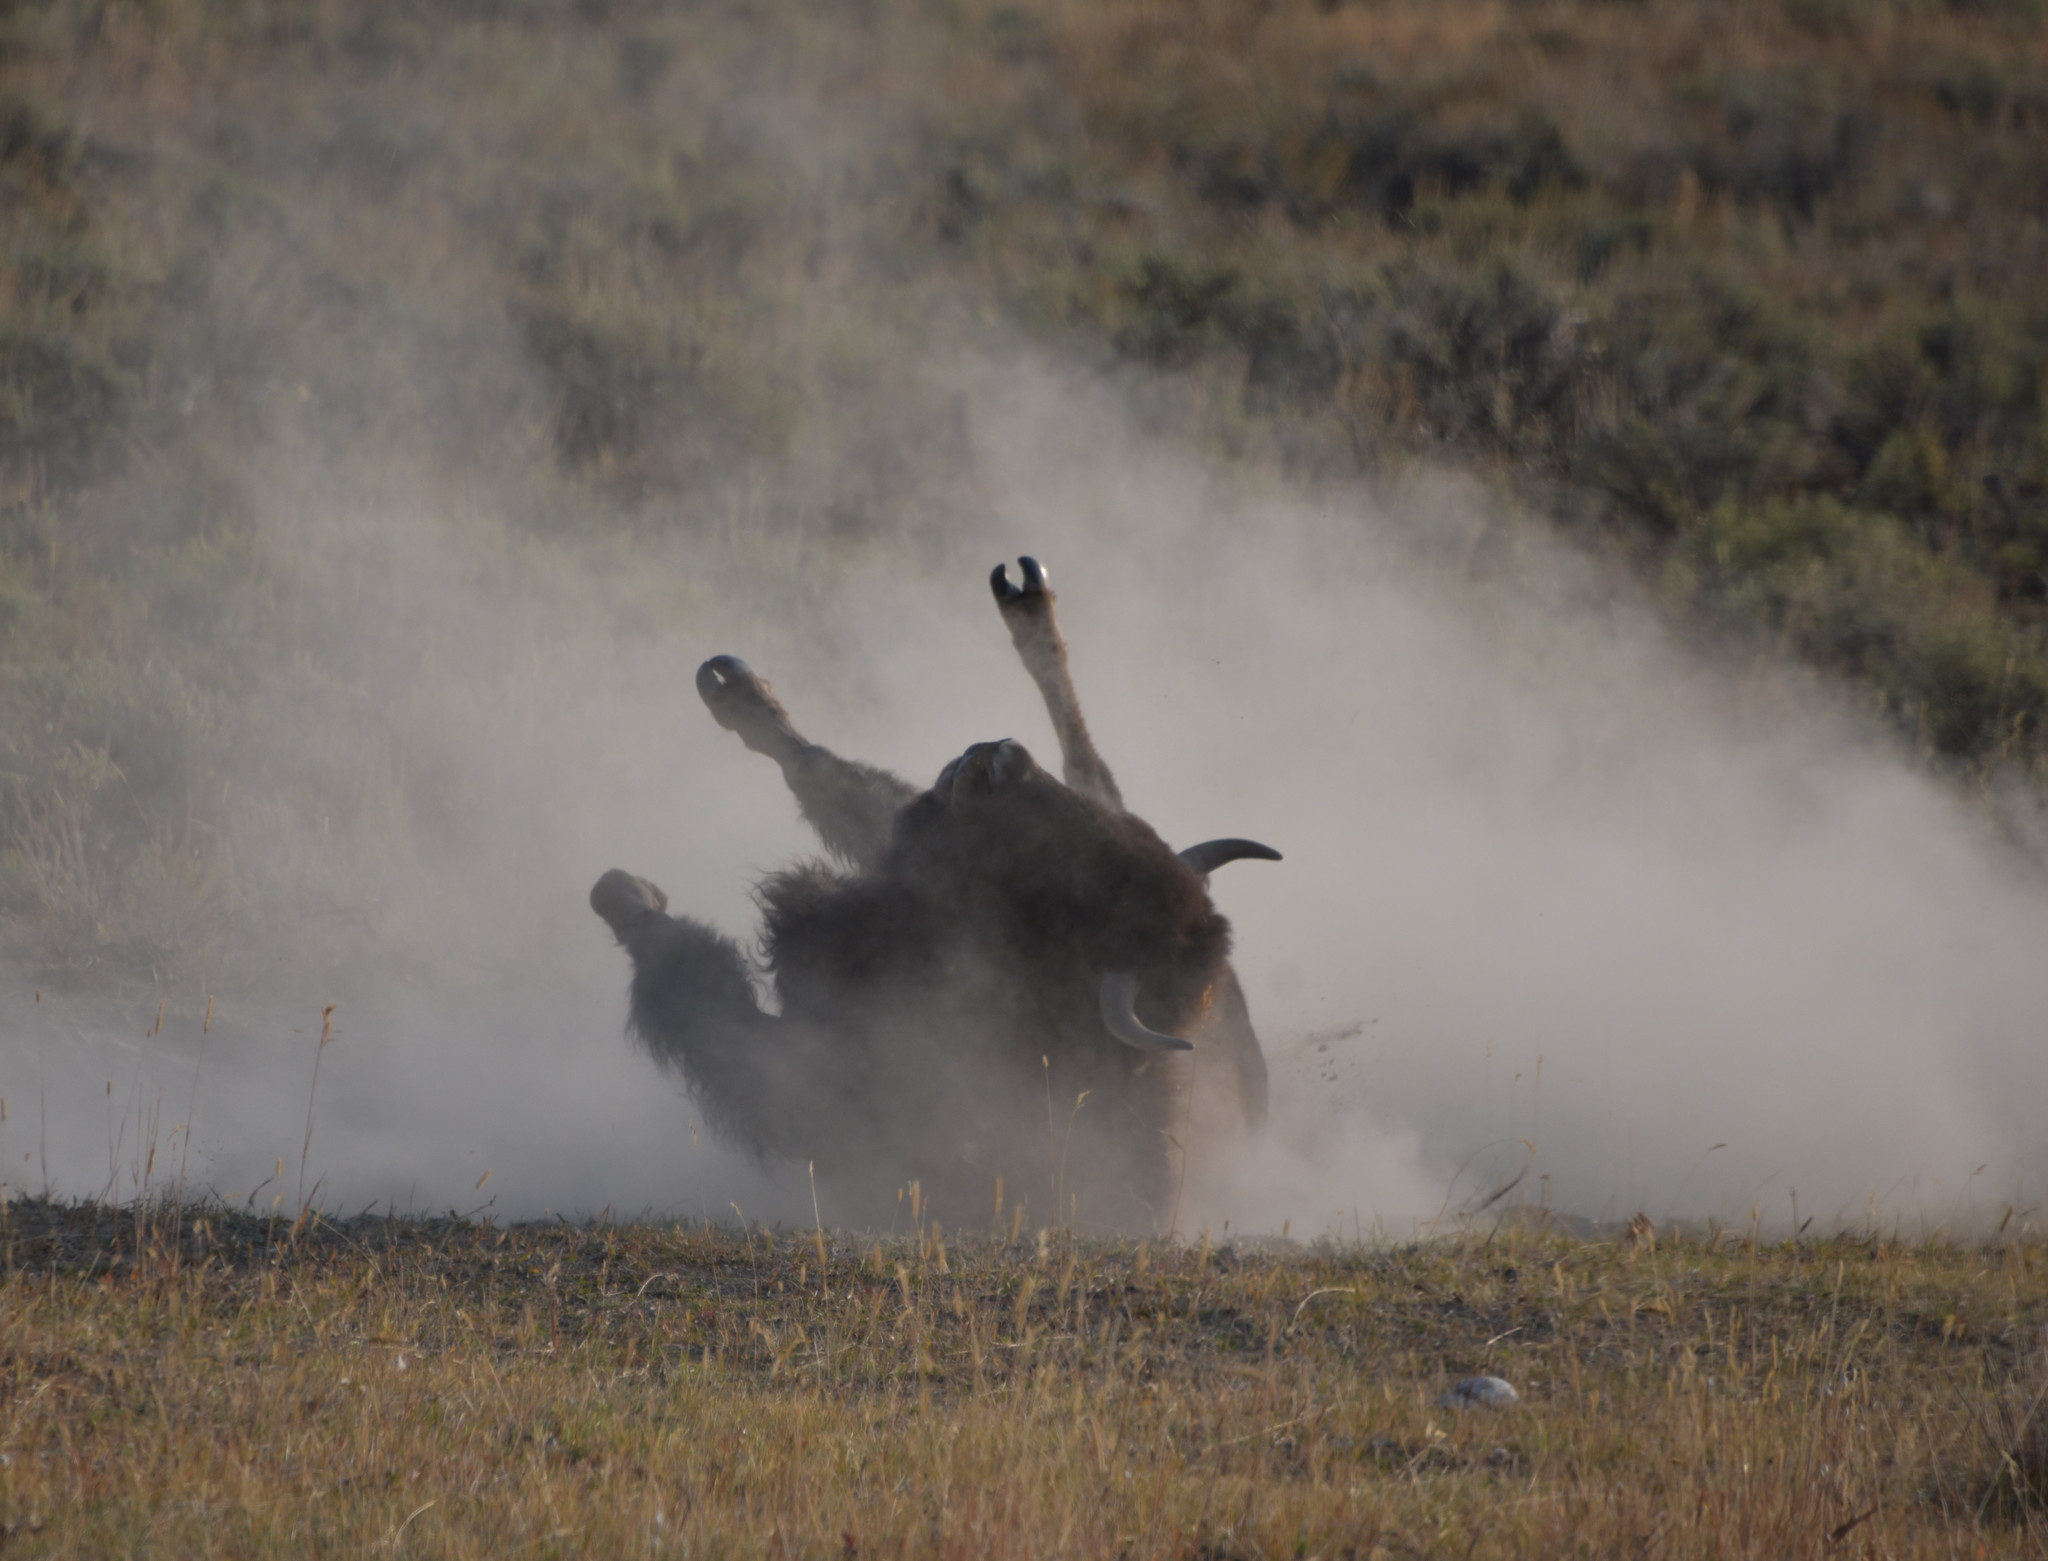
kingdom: Animalia
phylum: Chordata
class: Mammalia
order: Artiodactyla
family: Bovidae
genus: Bison
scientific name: Bison bison
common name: American bison
